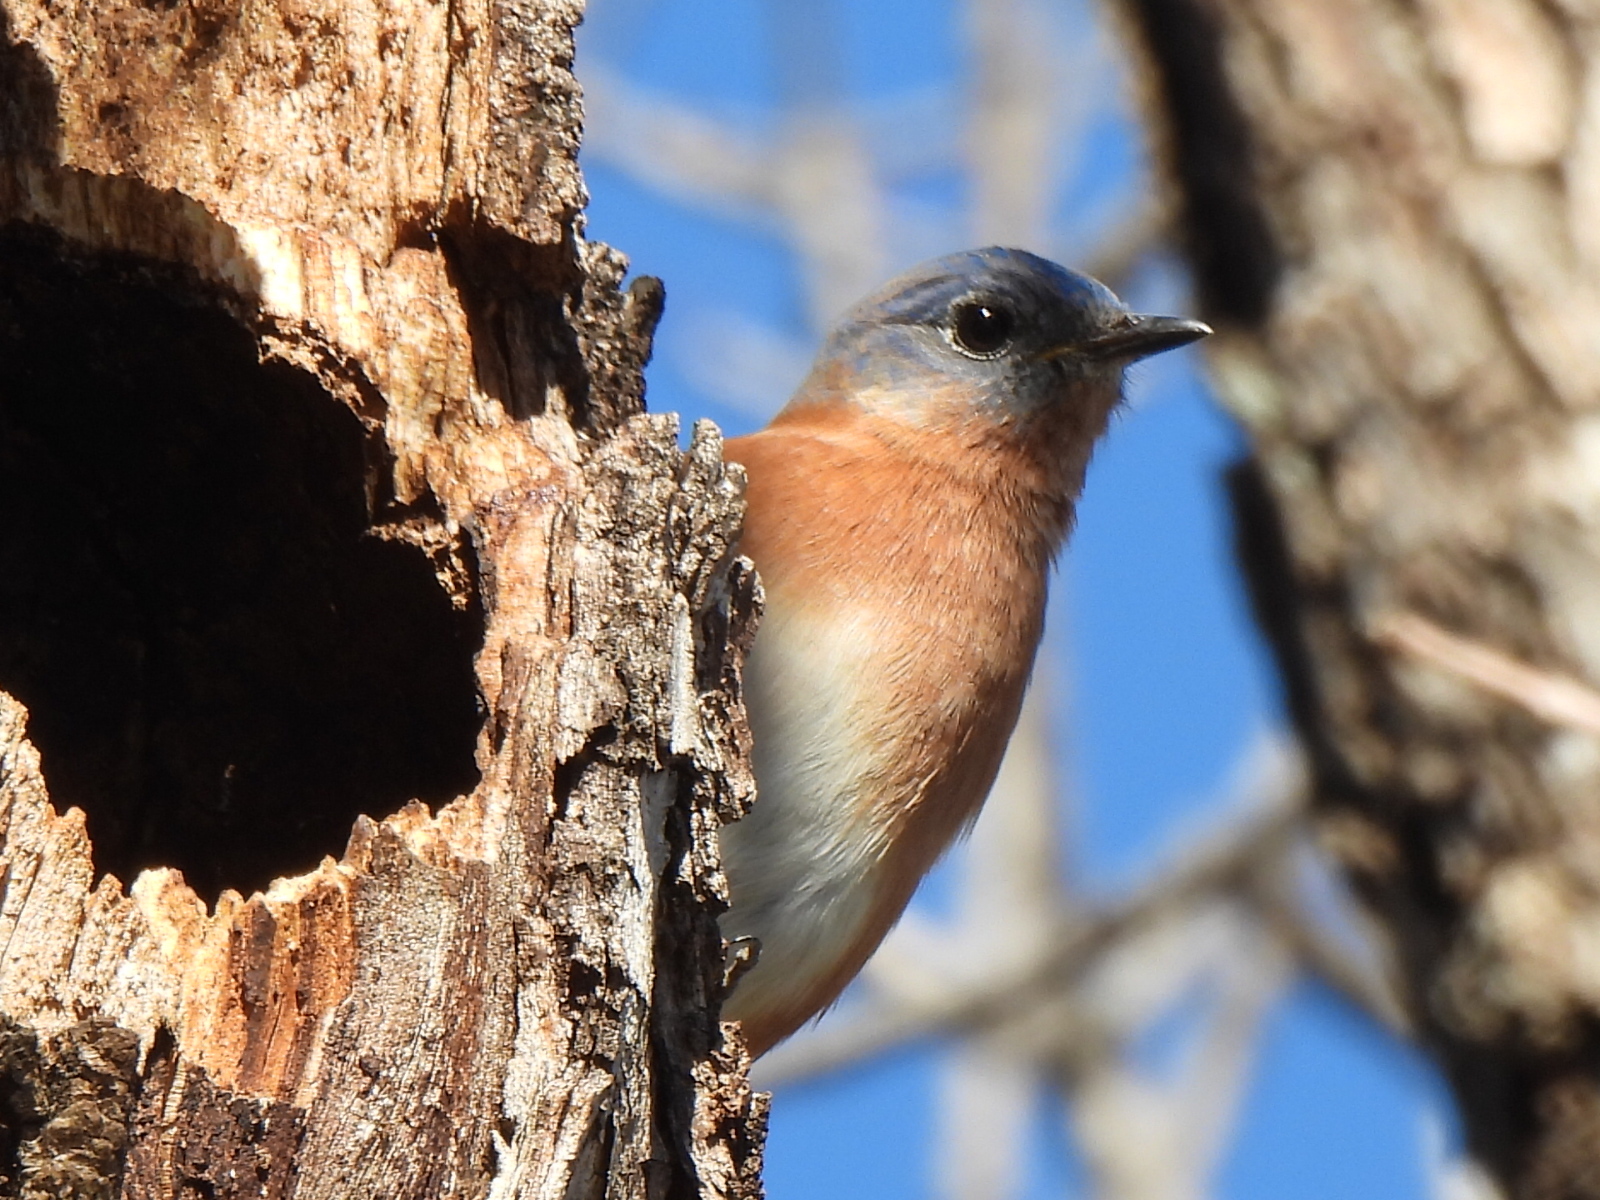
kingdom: Animalia
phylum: Chordata
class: Aves
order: Passeriformes
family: Turdidae
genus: Sialia
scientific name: Sialia sialis
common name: Eastern bluebird
